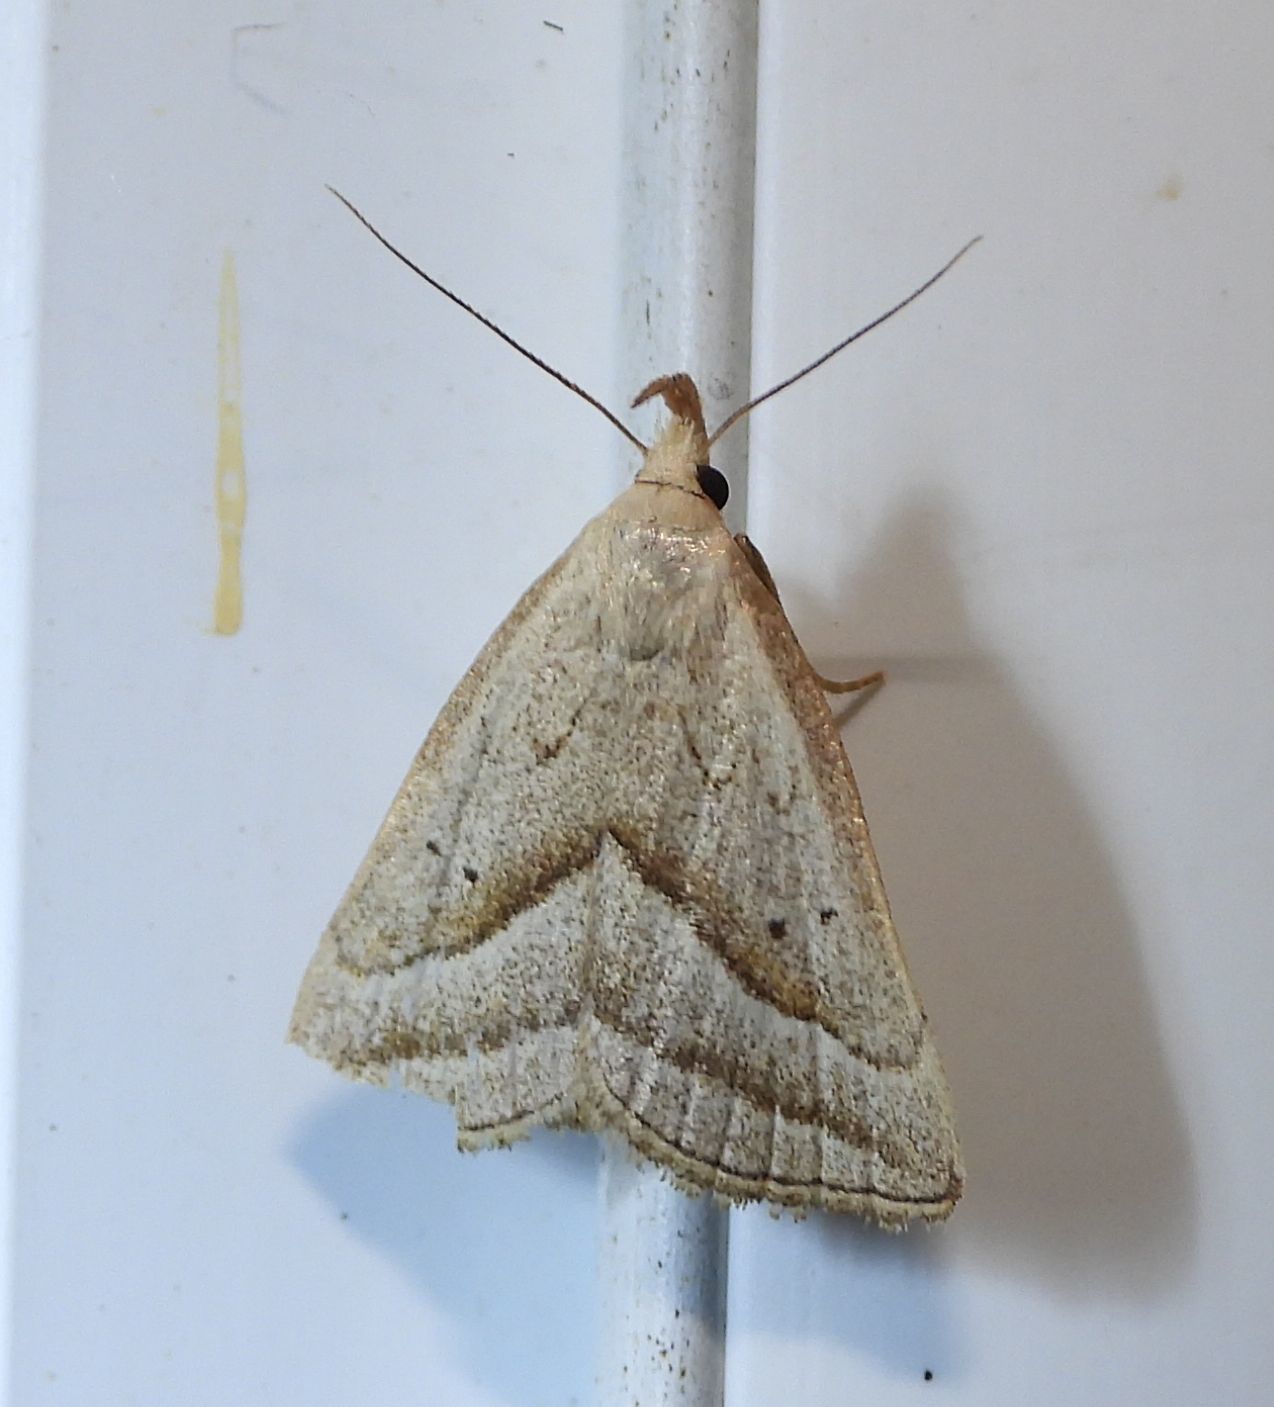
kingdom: Animalia
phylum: Arthropoda
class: Insecta
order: Lepidoptera
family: Erebidae
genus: Macrochilo
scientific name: Macrochilo absorptalis
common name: Slant-lined owlet
